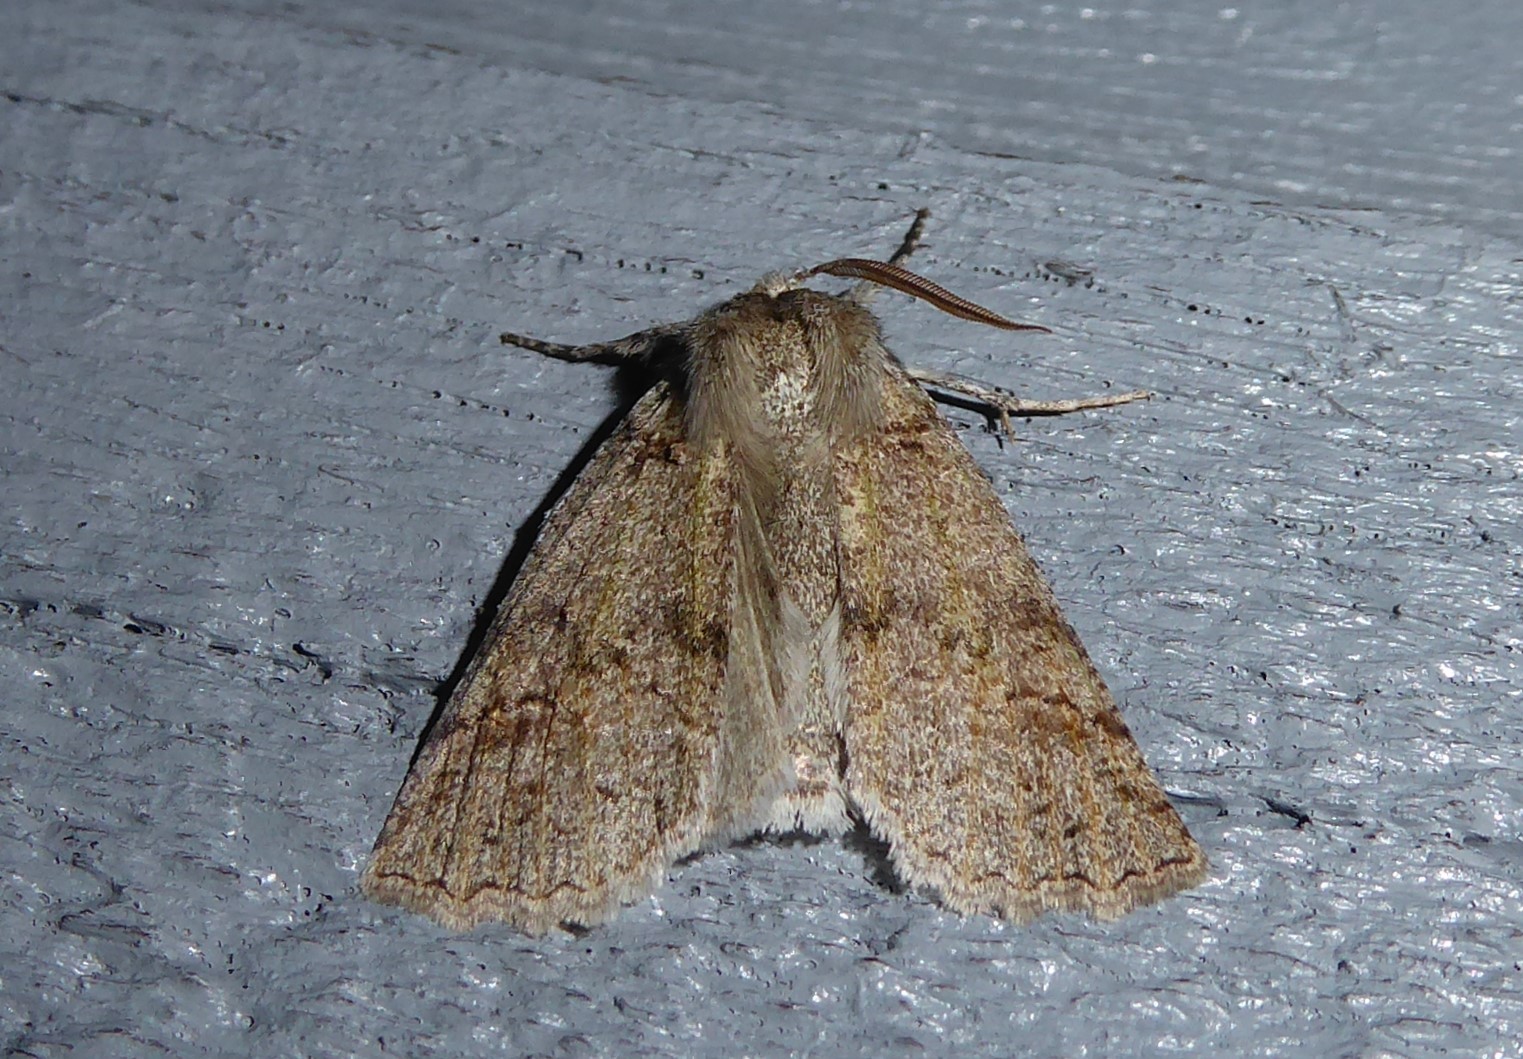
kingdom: Animalia
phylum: Arthropoda
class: Insecta
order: Lepidoptera
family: Geometridae
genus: Declana
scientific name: Declana floccosa
